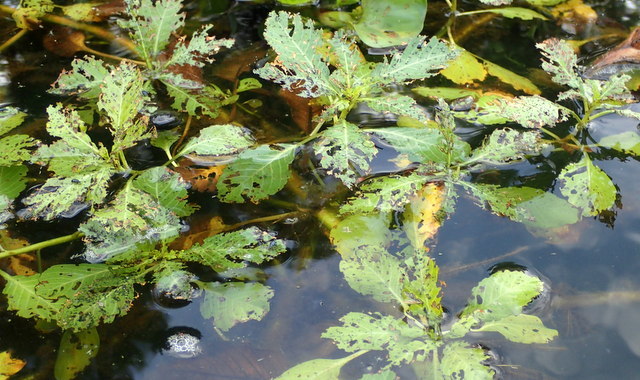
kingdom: Plantae
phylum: Tracheophyta
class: Magnoliopsida
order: Myrtales
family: Onagraceae
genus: Ludwigia
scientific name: Ludwigia peploides
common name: Floating primrose-willow
